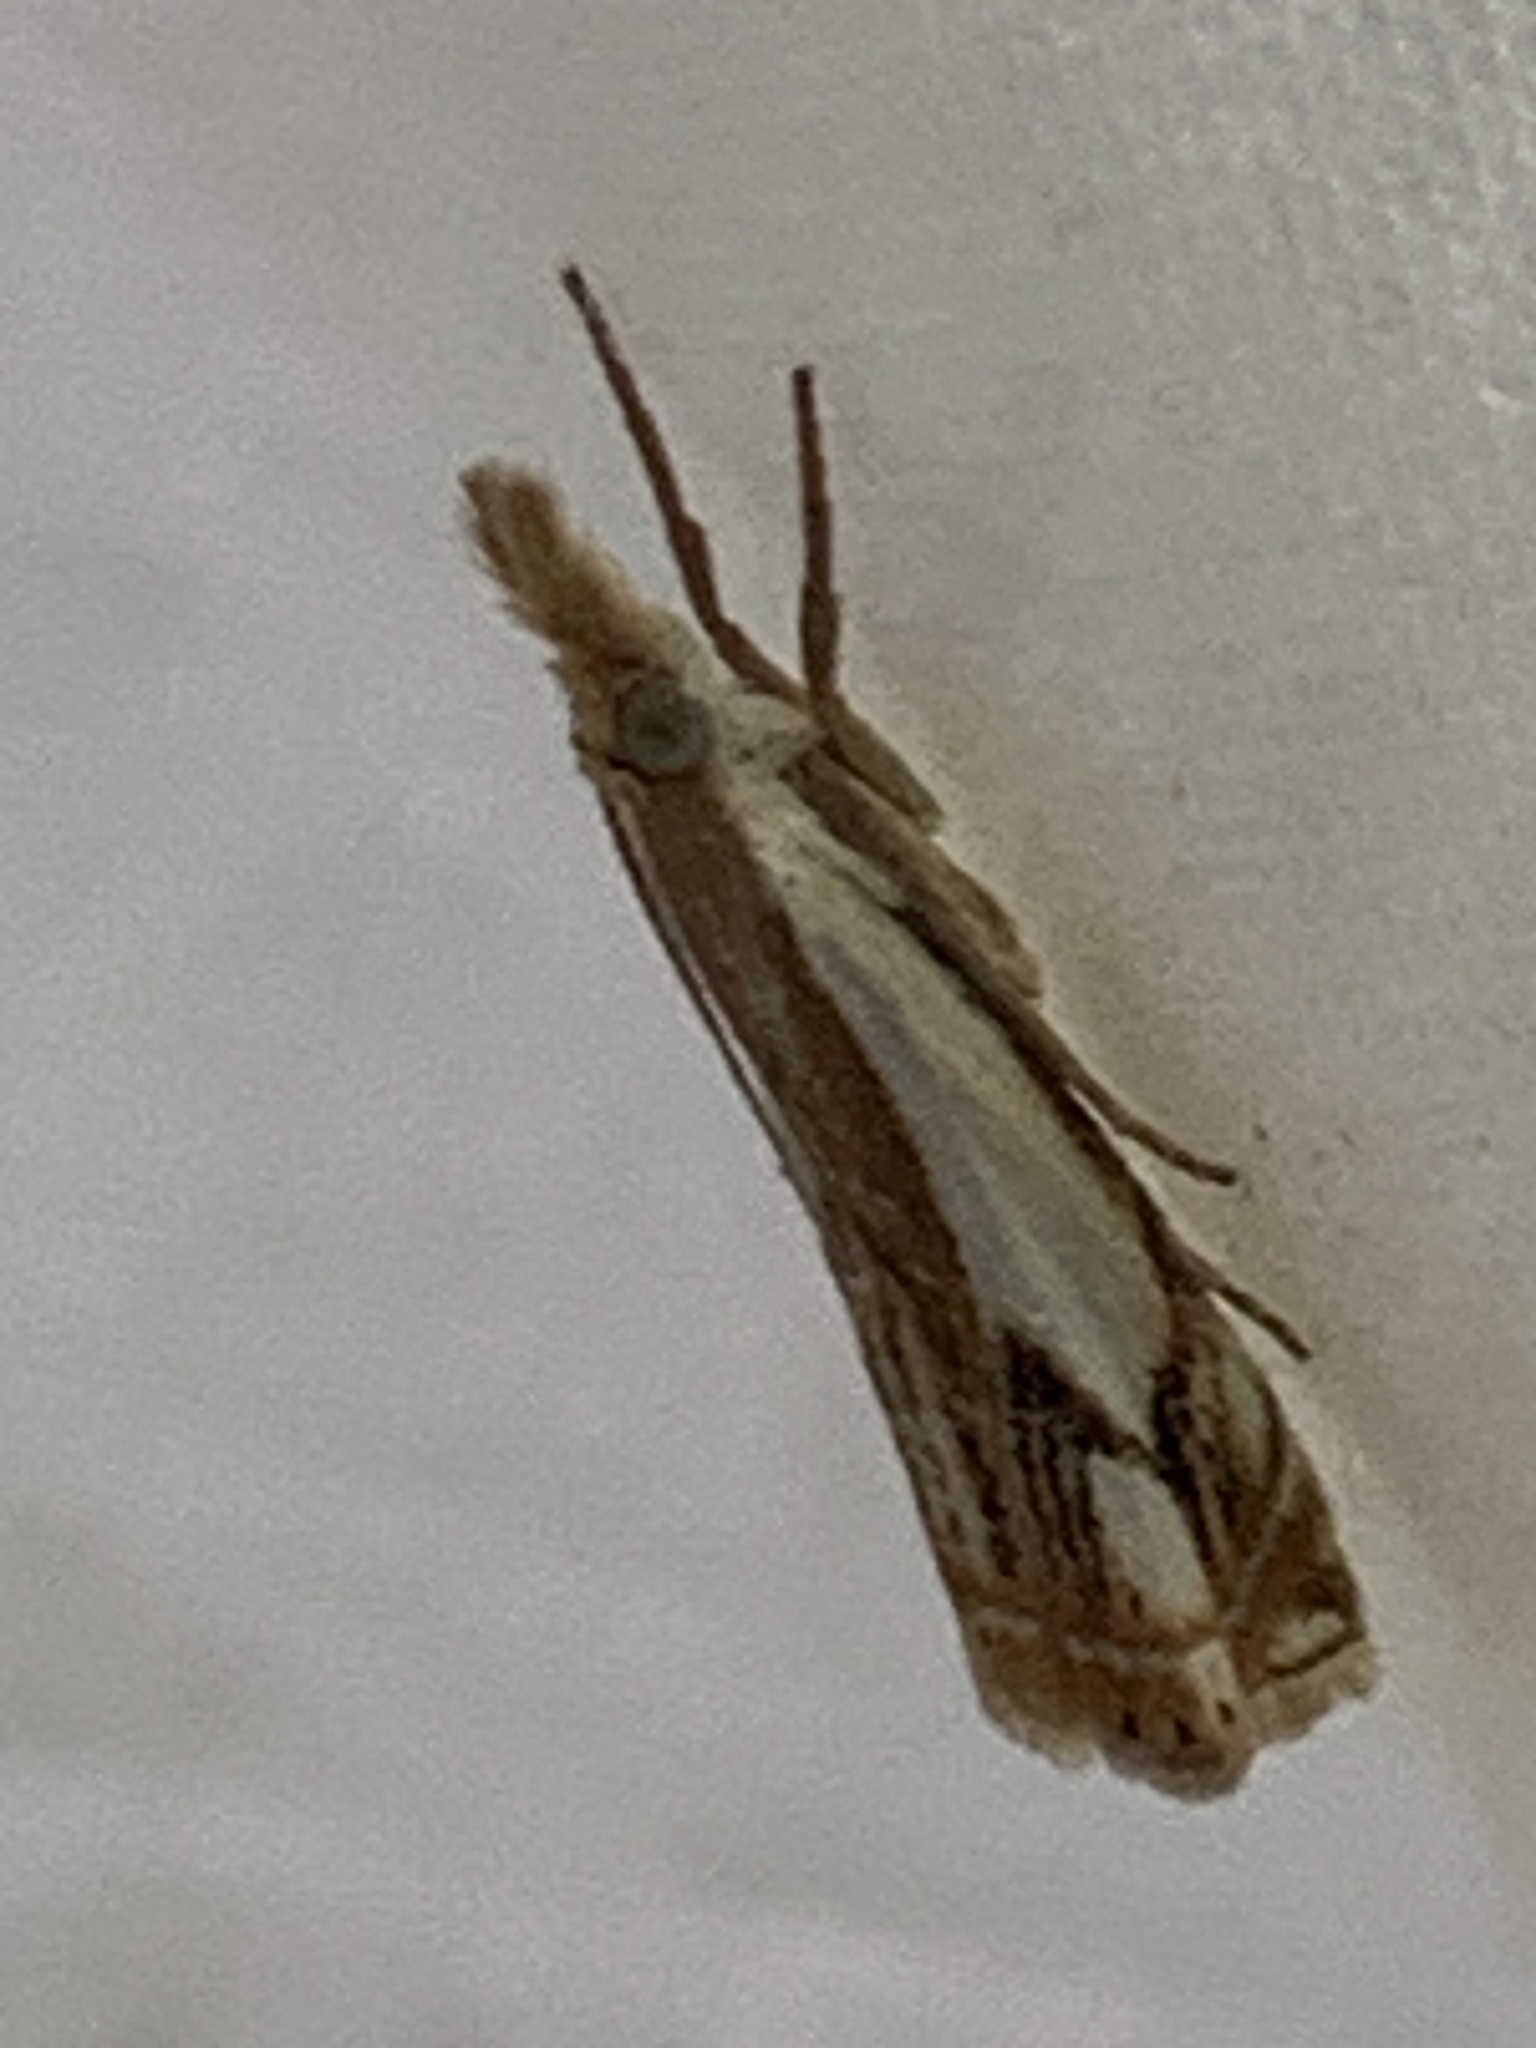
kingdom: Animalia
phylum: Arthropoda
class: Insecta
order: Lepidoptera
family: Crambidae
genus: Crambus
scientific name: Crambus agitatellus
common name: Double-banded grass-veneer
